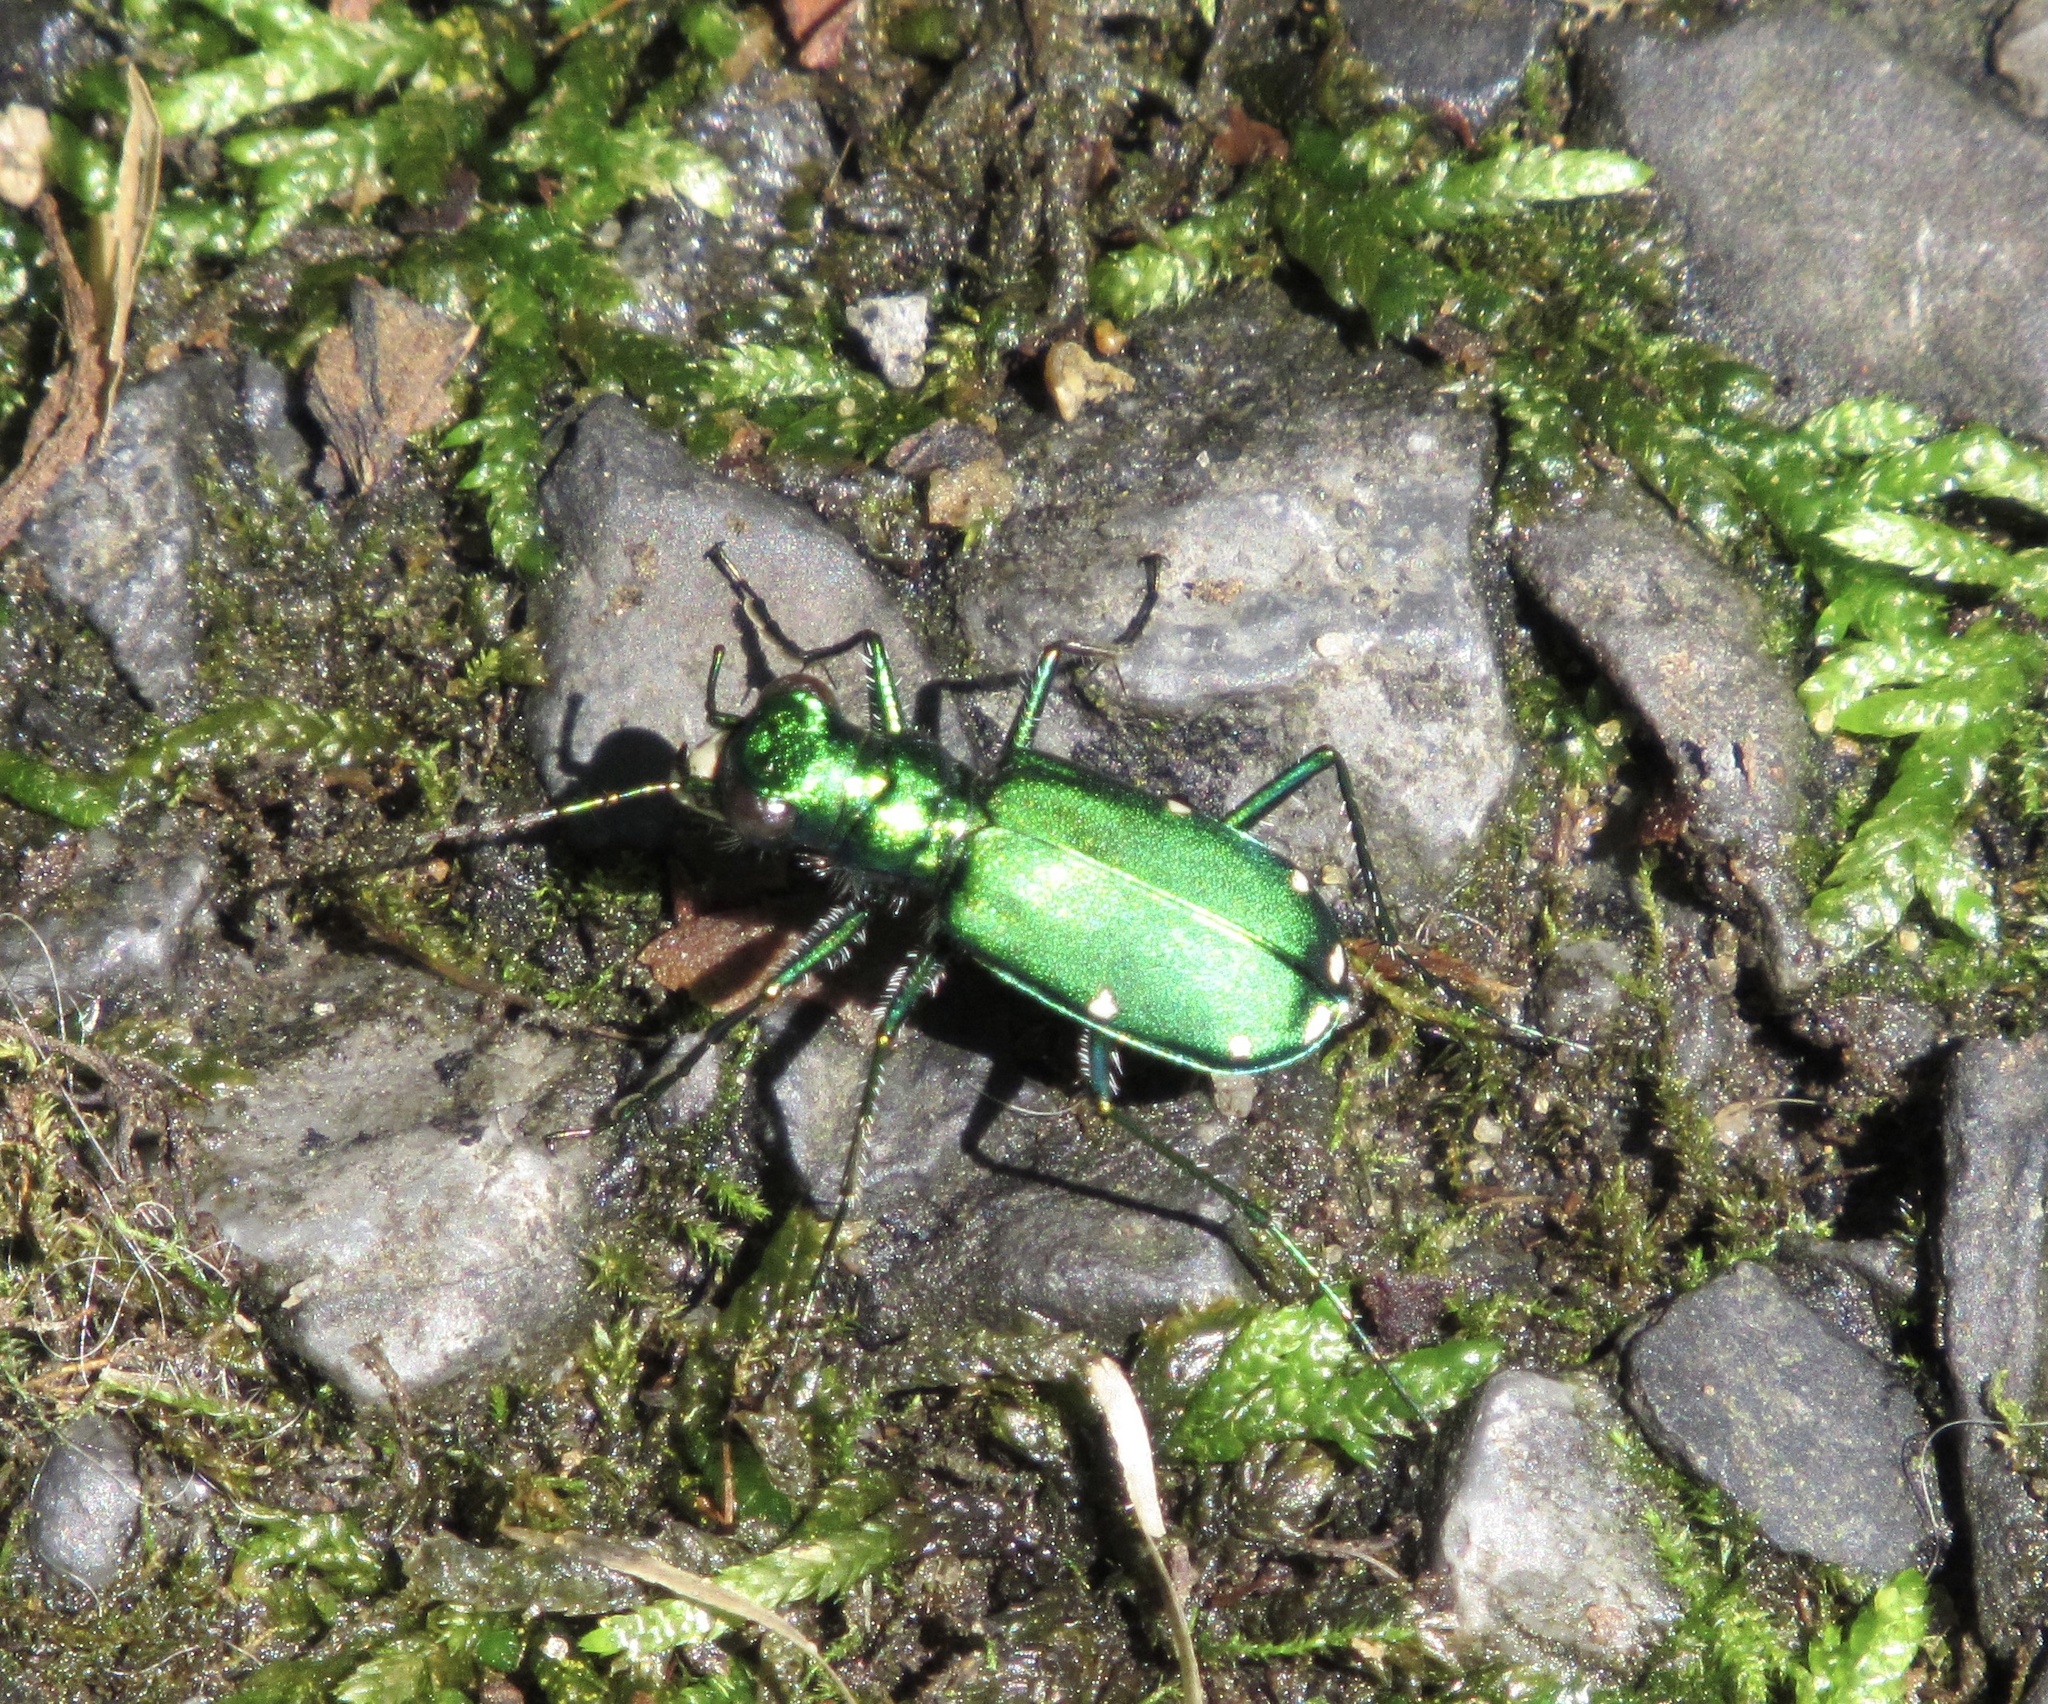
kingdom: Animalia
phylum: Arthropoda
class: Insecta
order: Coleoptera
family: Carabidae
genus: Cicindela
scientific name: Cicindela sexguttata
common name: Six-spotted tiger beetle
